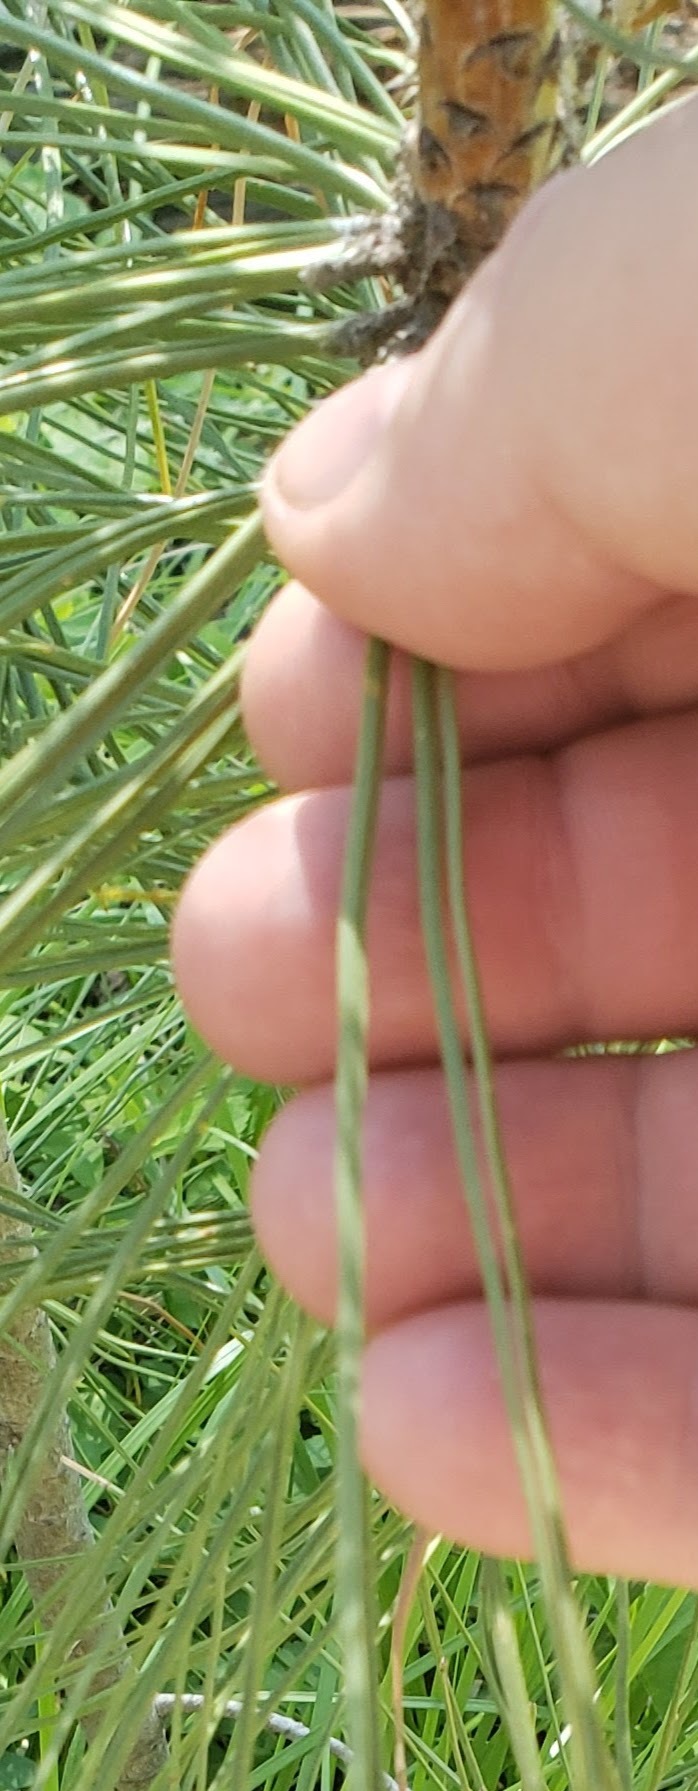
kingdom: Plantae
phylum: Tracheophyta
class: Pinopsida
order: Pinales
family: Pinaceae
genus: Pinus
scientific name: Pinus ponderosa
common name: Western yellow-pine
